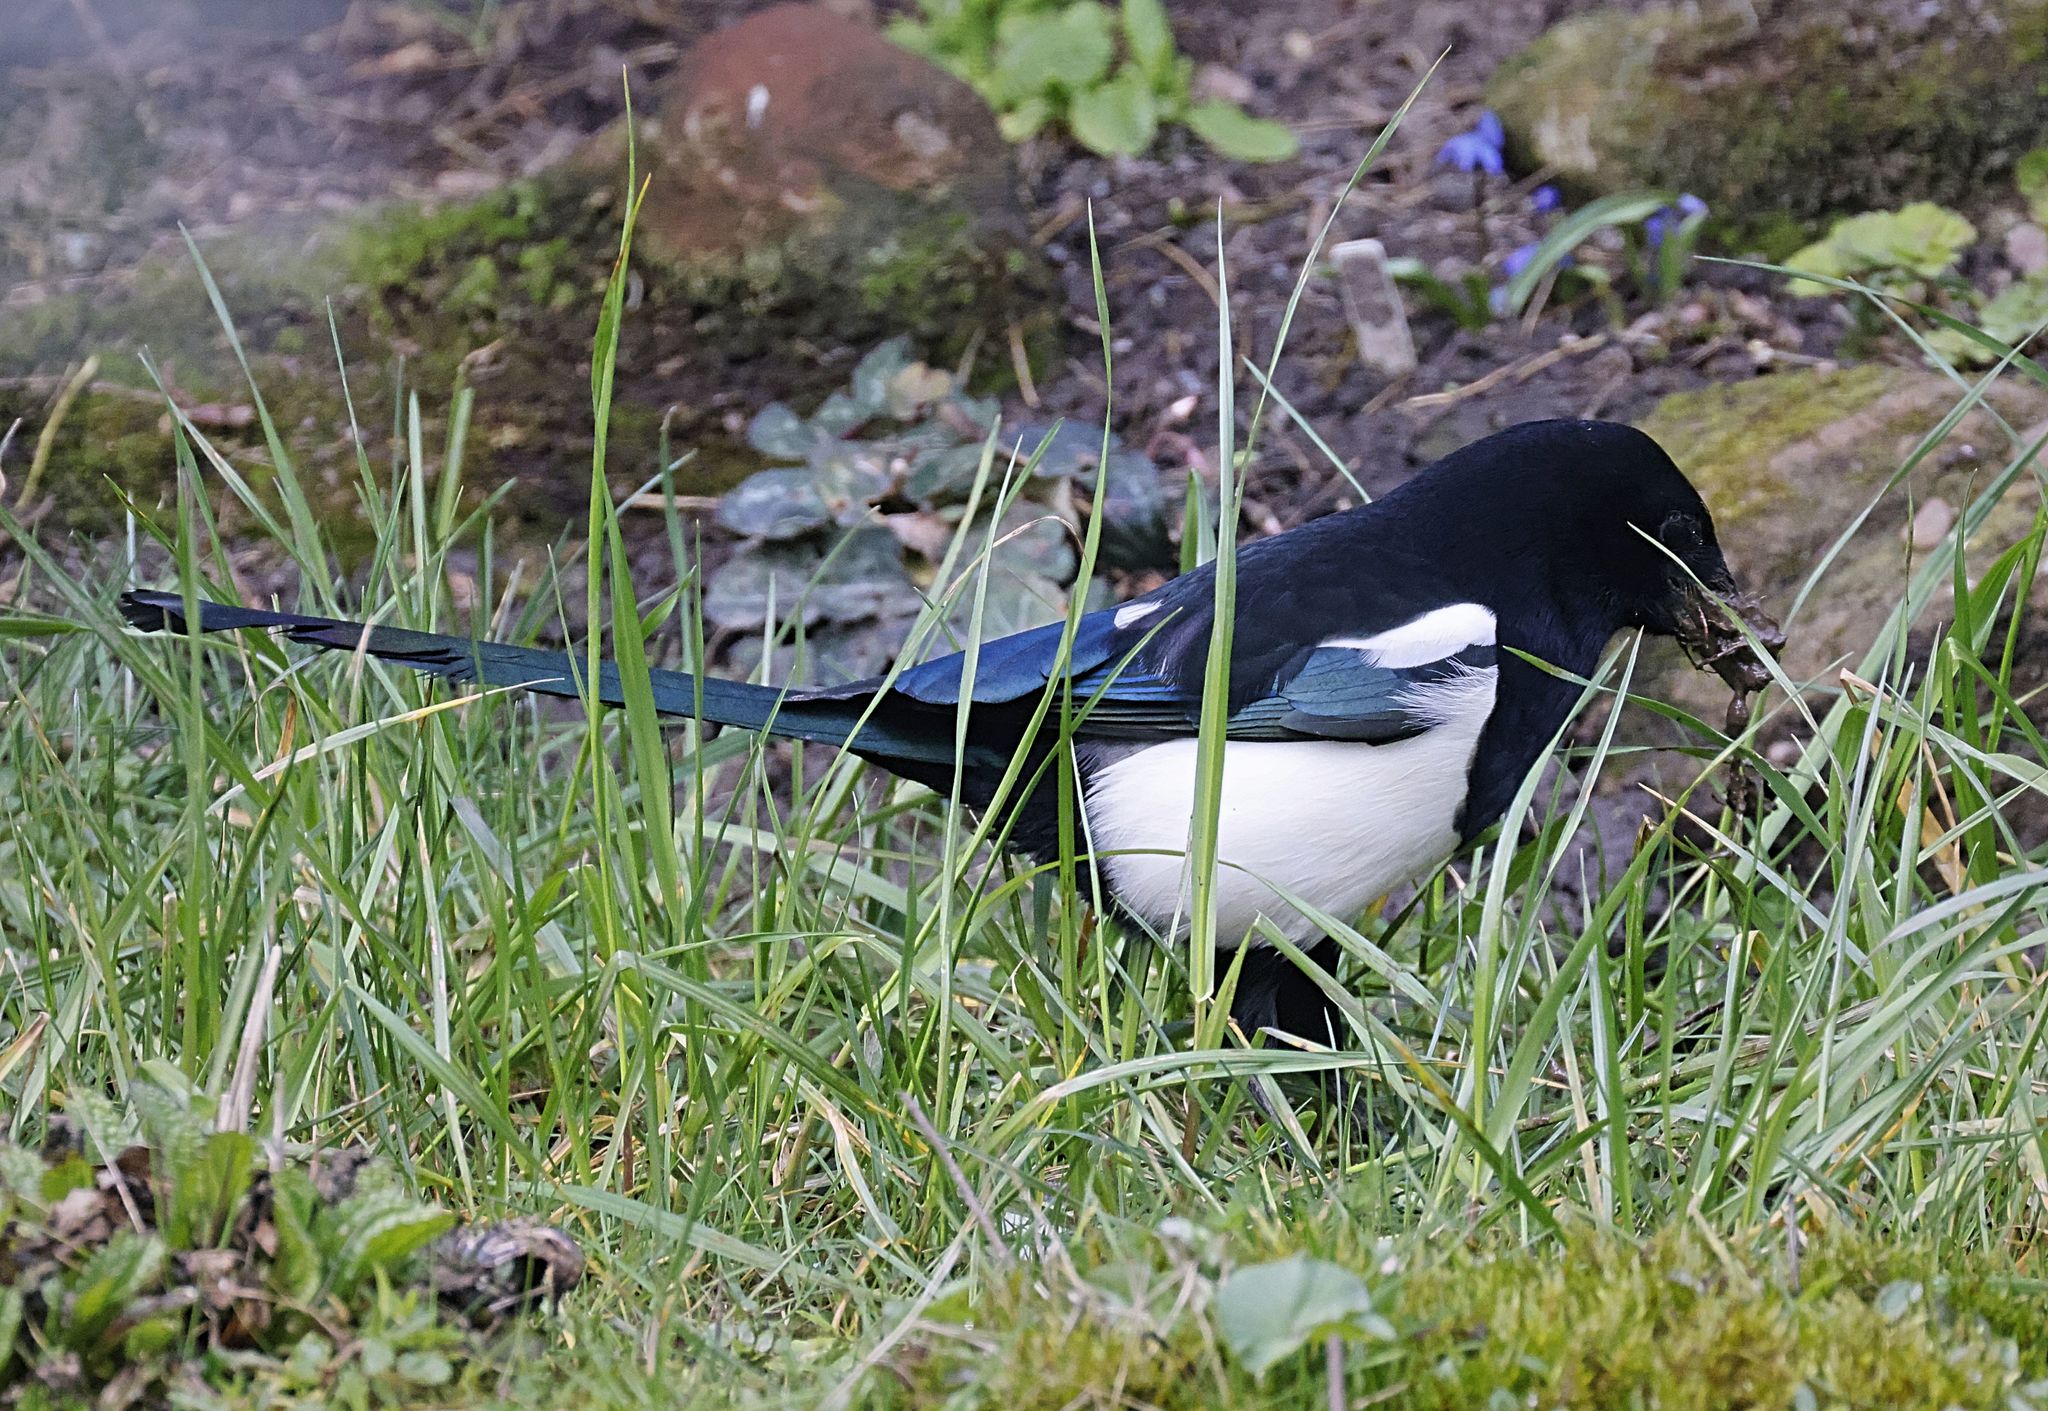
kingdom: Animalia
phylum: Chordata
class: Aves
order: Passeriformes
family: Corvidae
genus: Pica
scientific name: Pica pica
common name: Eurasian magpie
